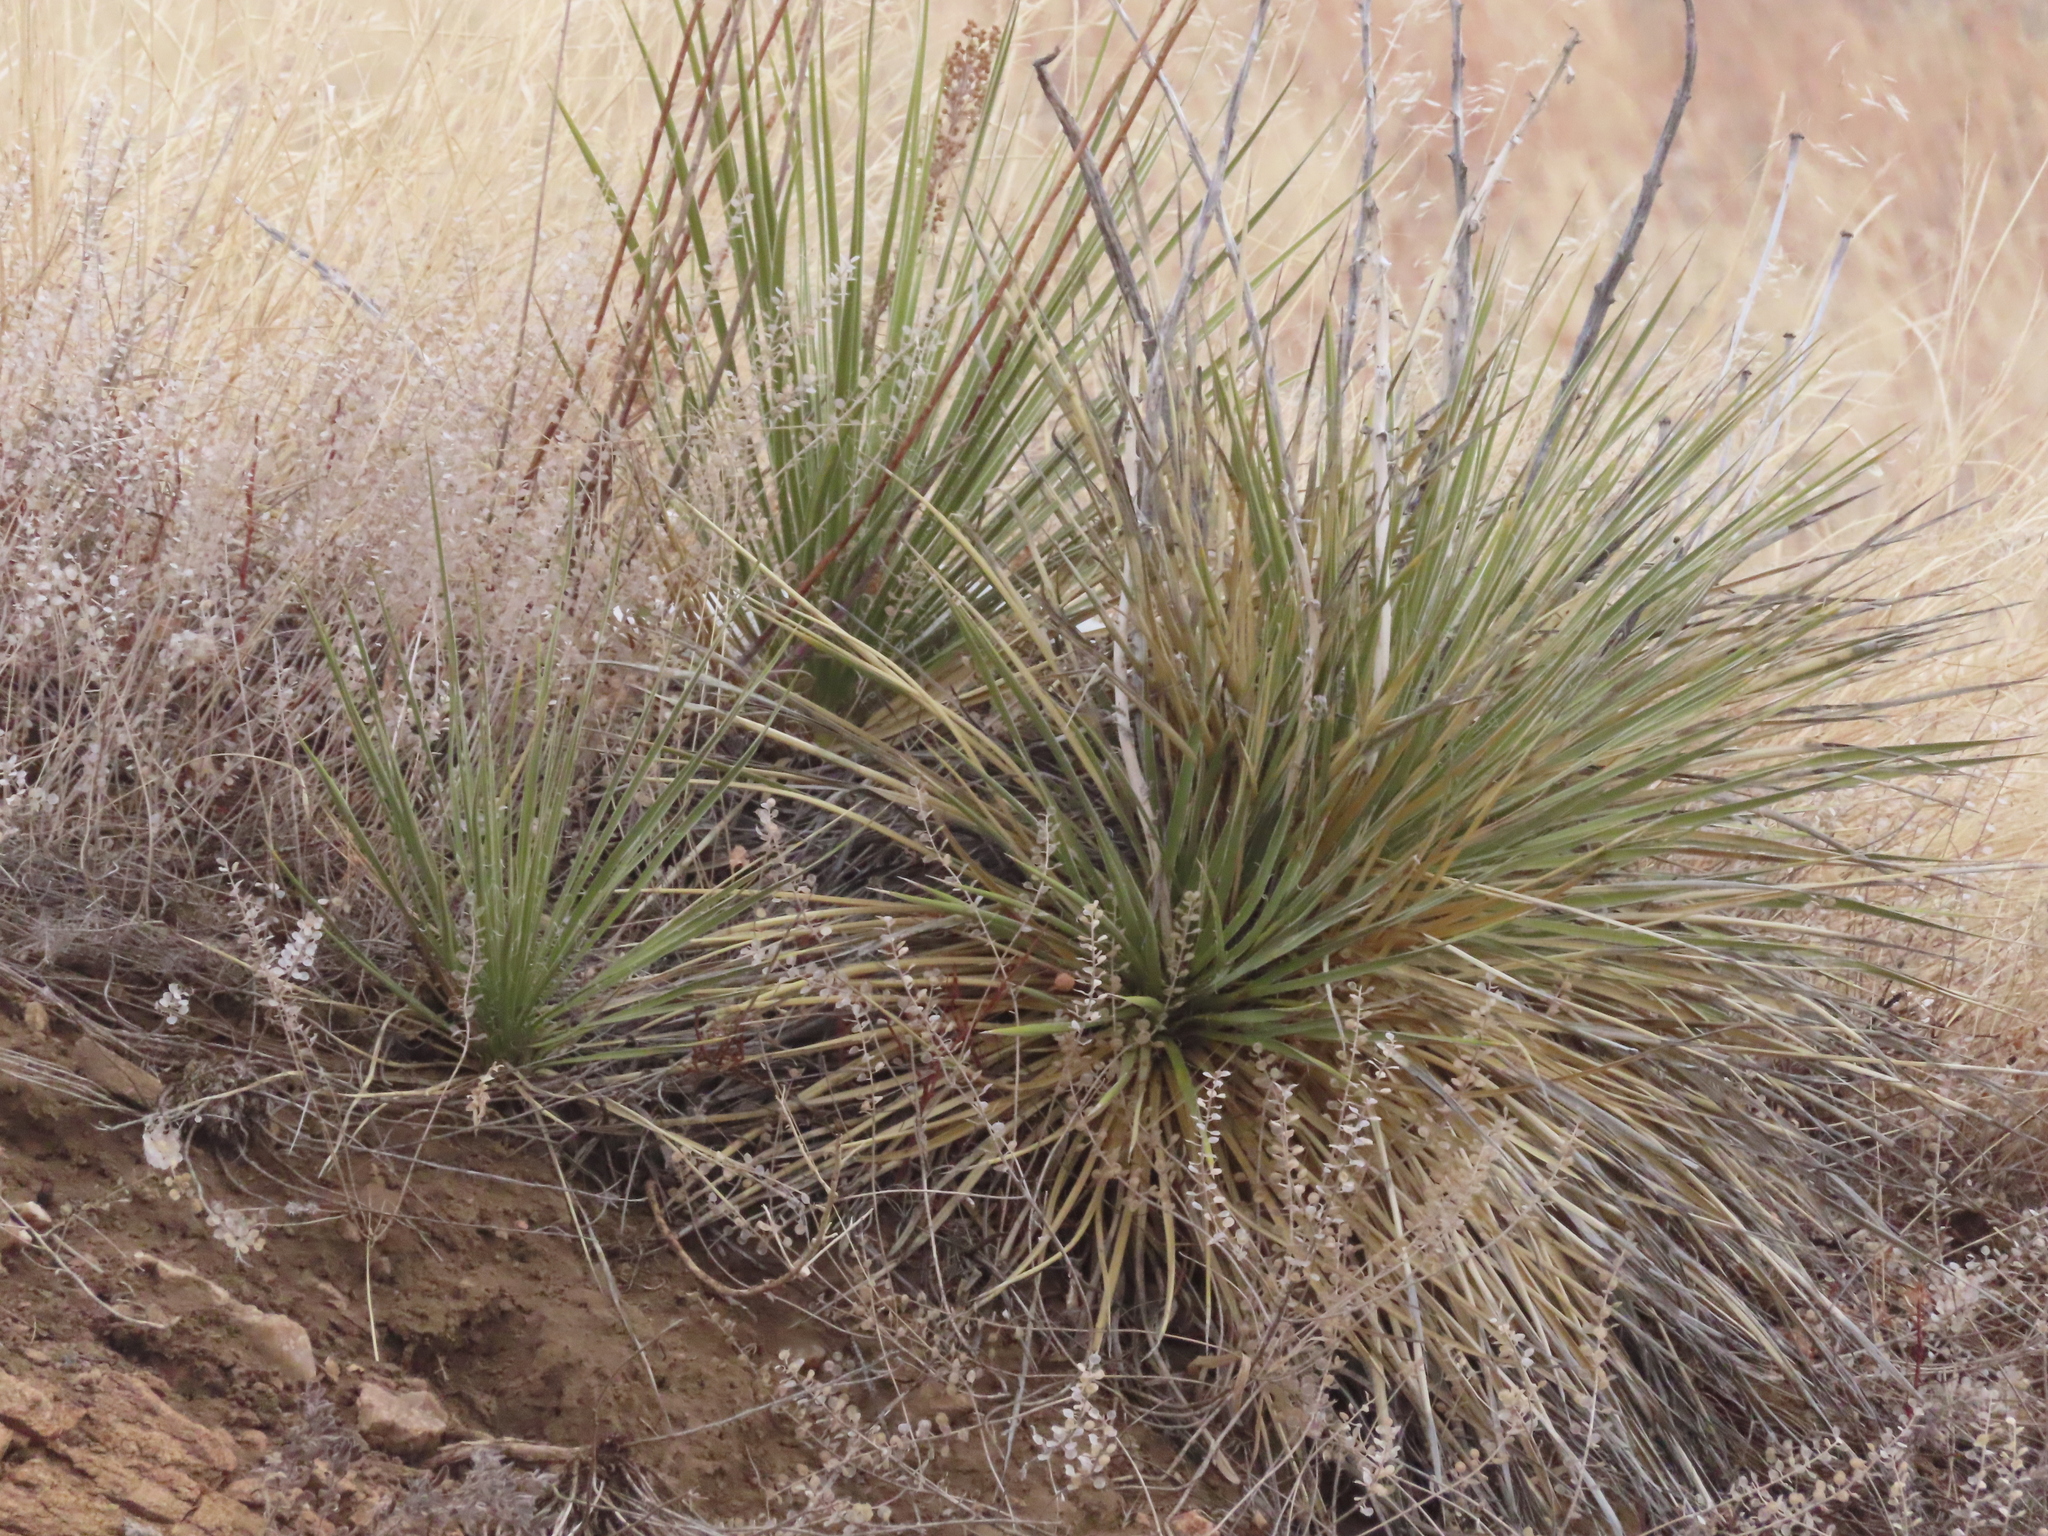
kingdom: Plantae
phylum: Tracheophyta
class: Liliopsida
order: Asparagales
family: Asparagaceae
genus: Yucca
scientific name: Yucca glauca
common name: Great plains yucca
